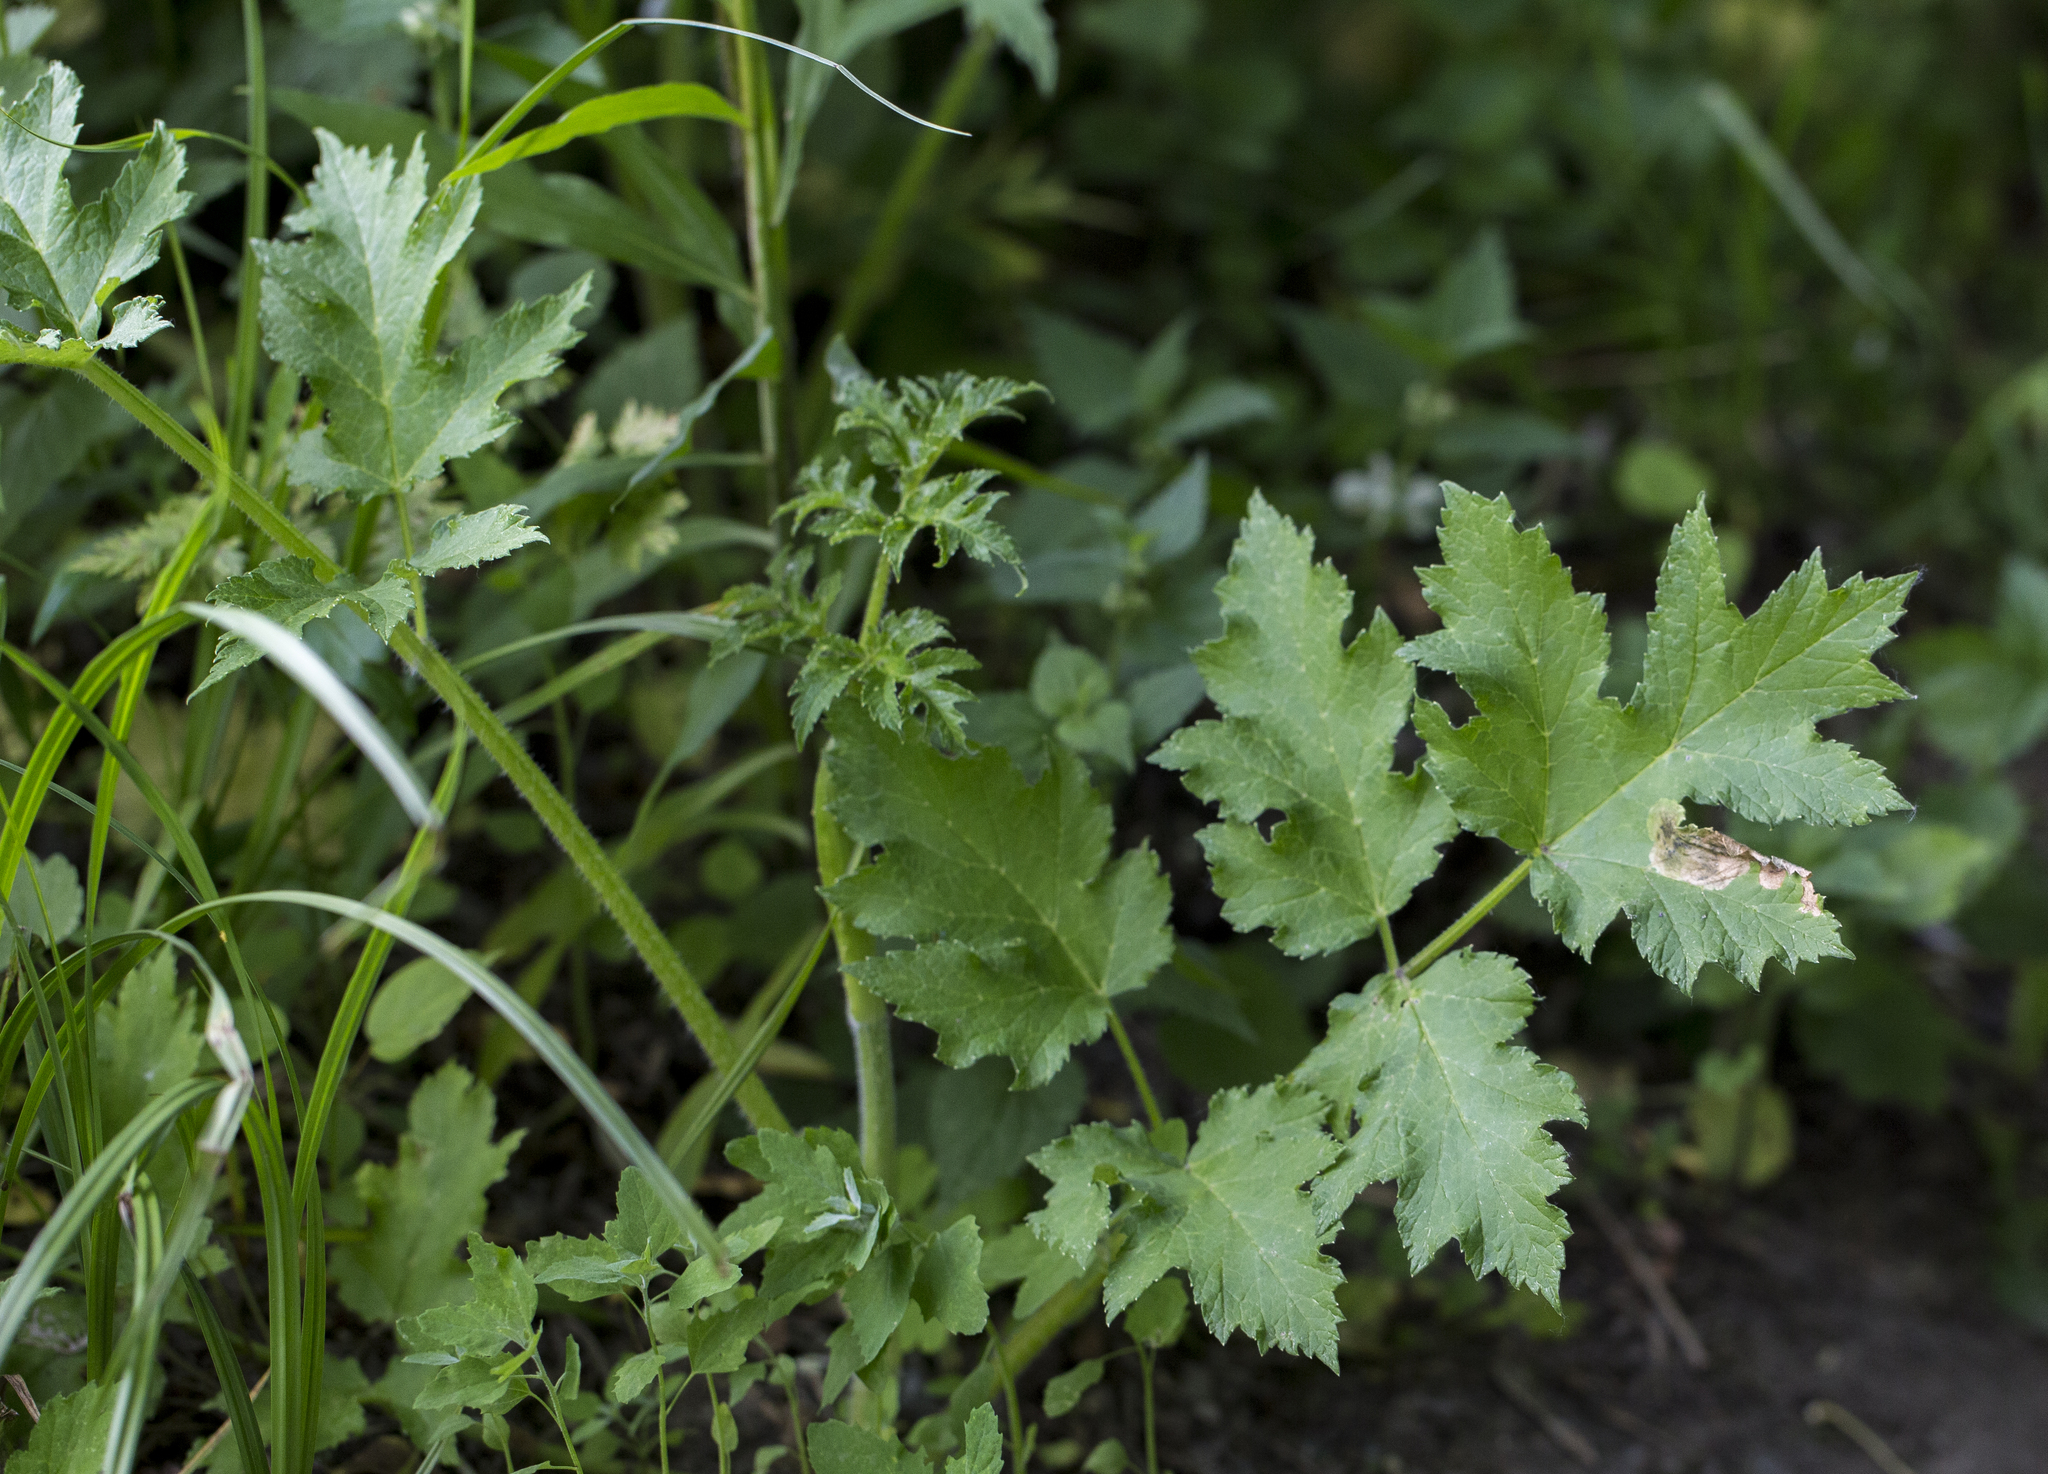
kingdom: Plantae
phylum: Tracheophyta
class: Magnoliopsida
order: Apiales
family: Apiaceae
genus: Heracleum
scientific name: Heracleum sphondylium
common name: Hogweed
